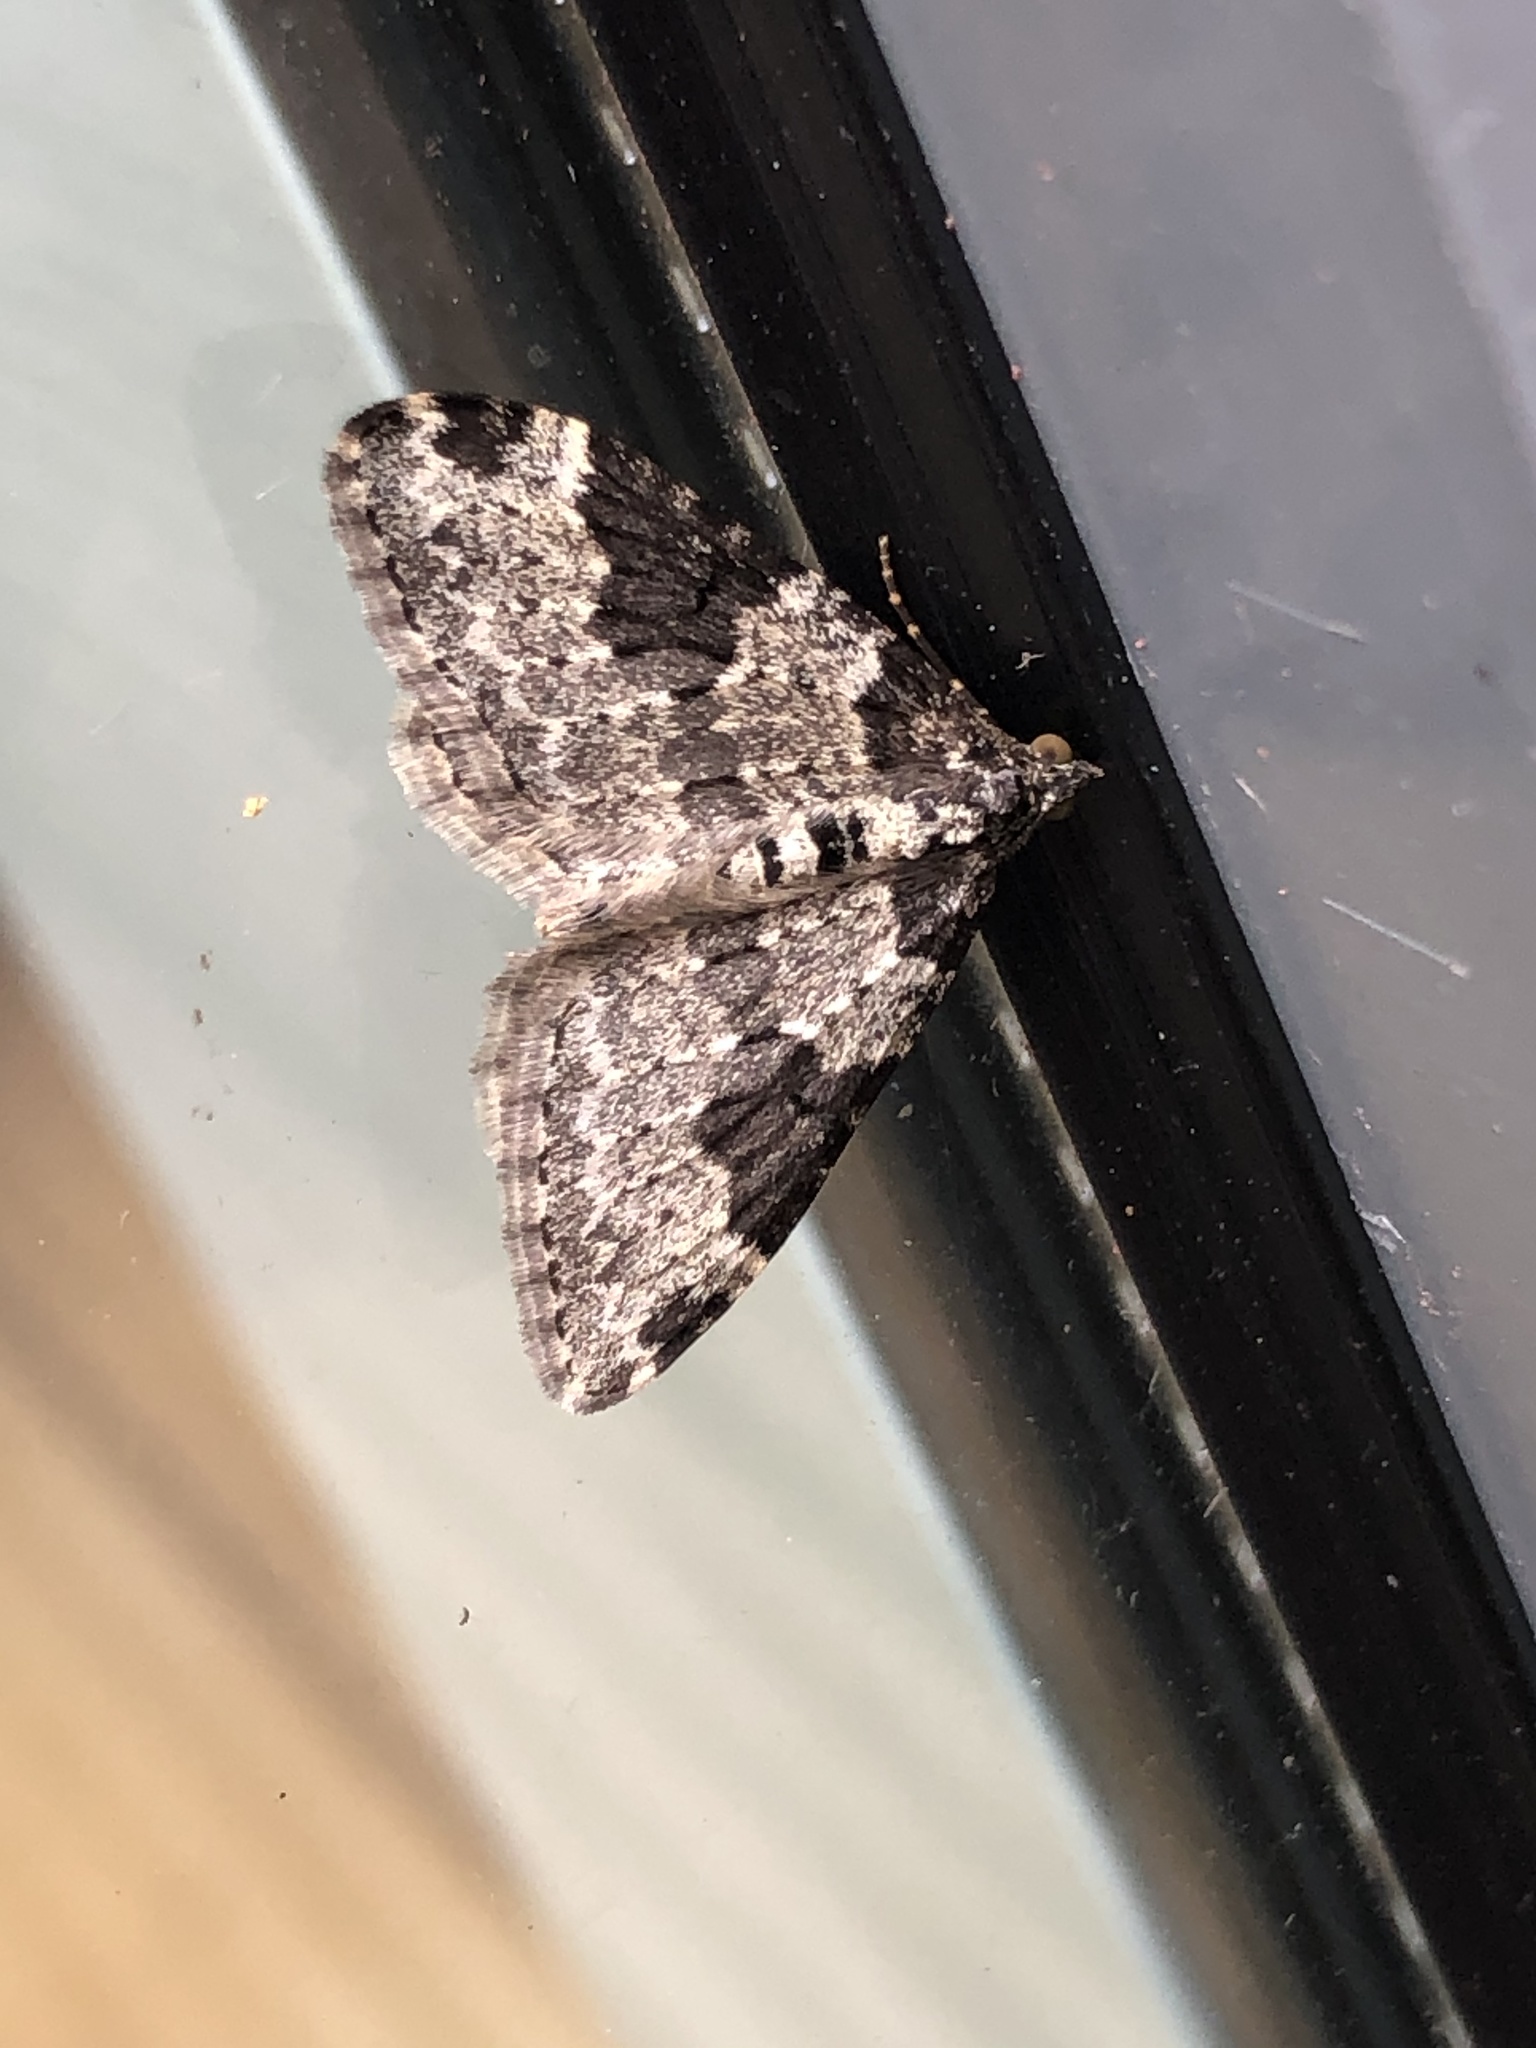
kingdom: Animalia
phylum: Arthropoda
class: Insecta
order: Lepidoptera
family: Geometridae
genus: Xanthorhoe
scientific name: Xanthorhoe fluctuata
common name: Garden carpet
